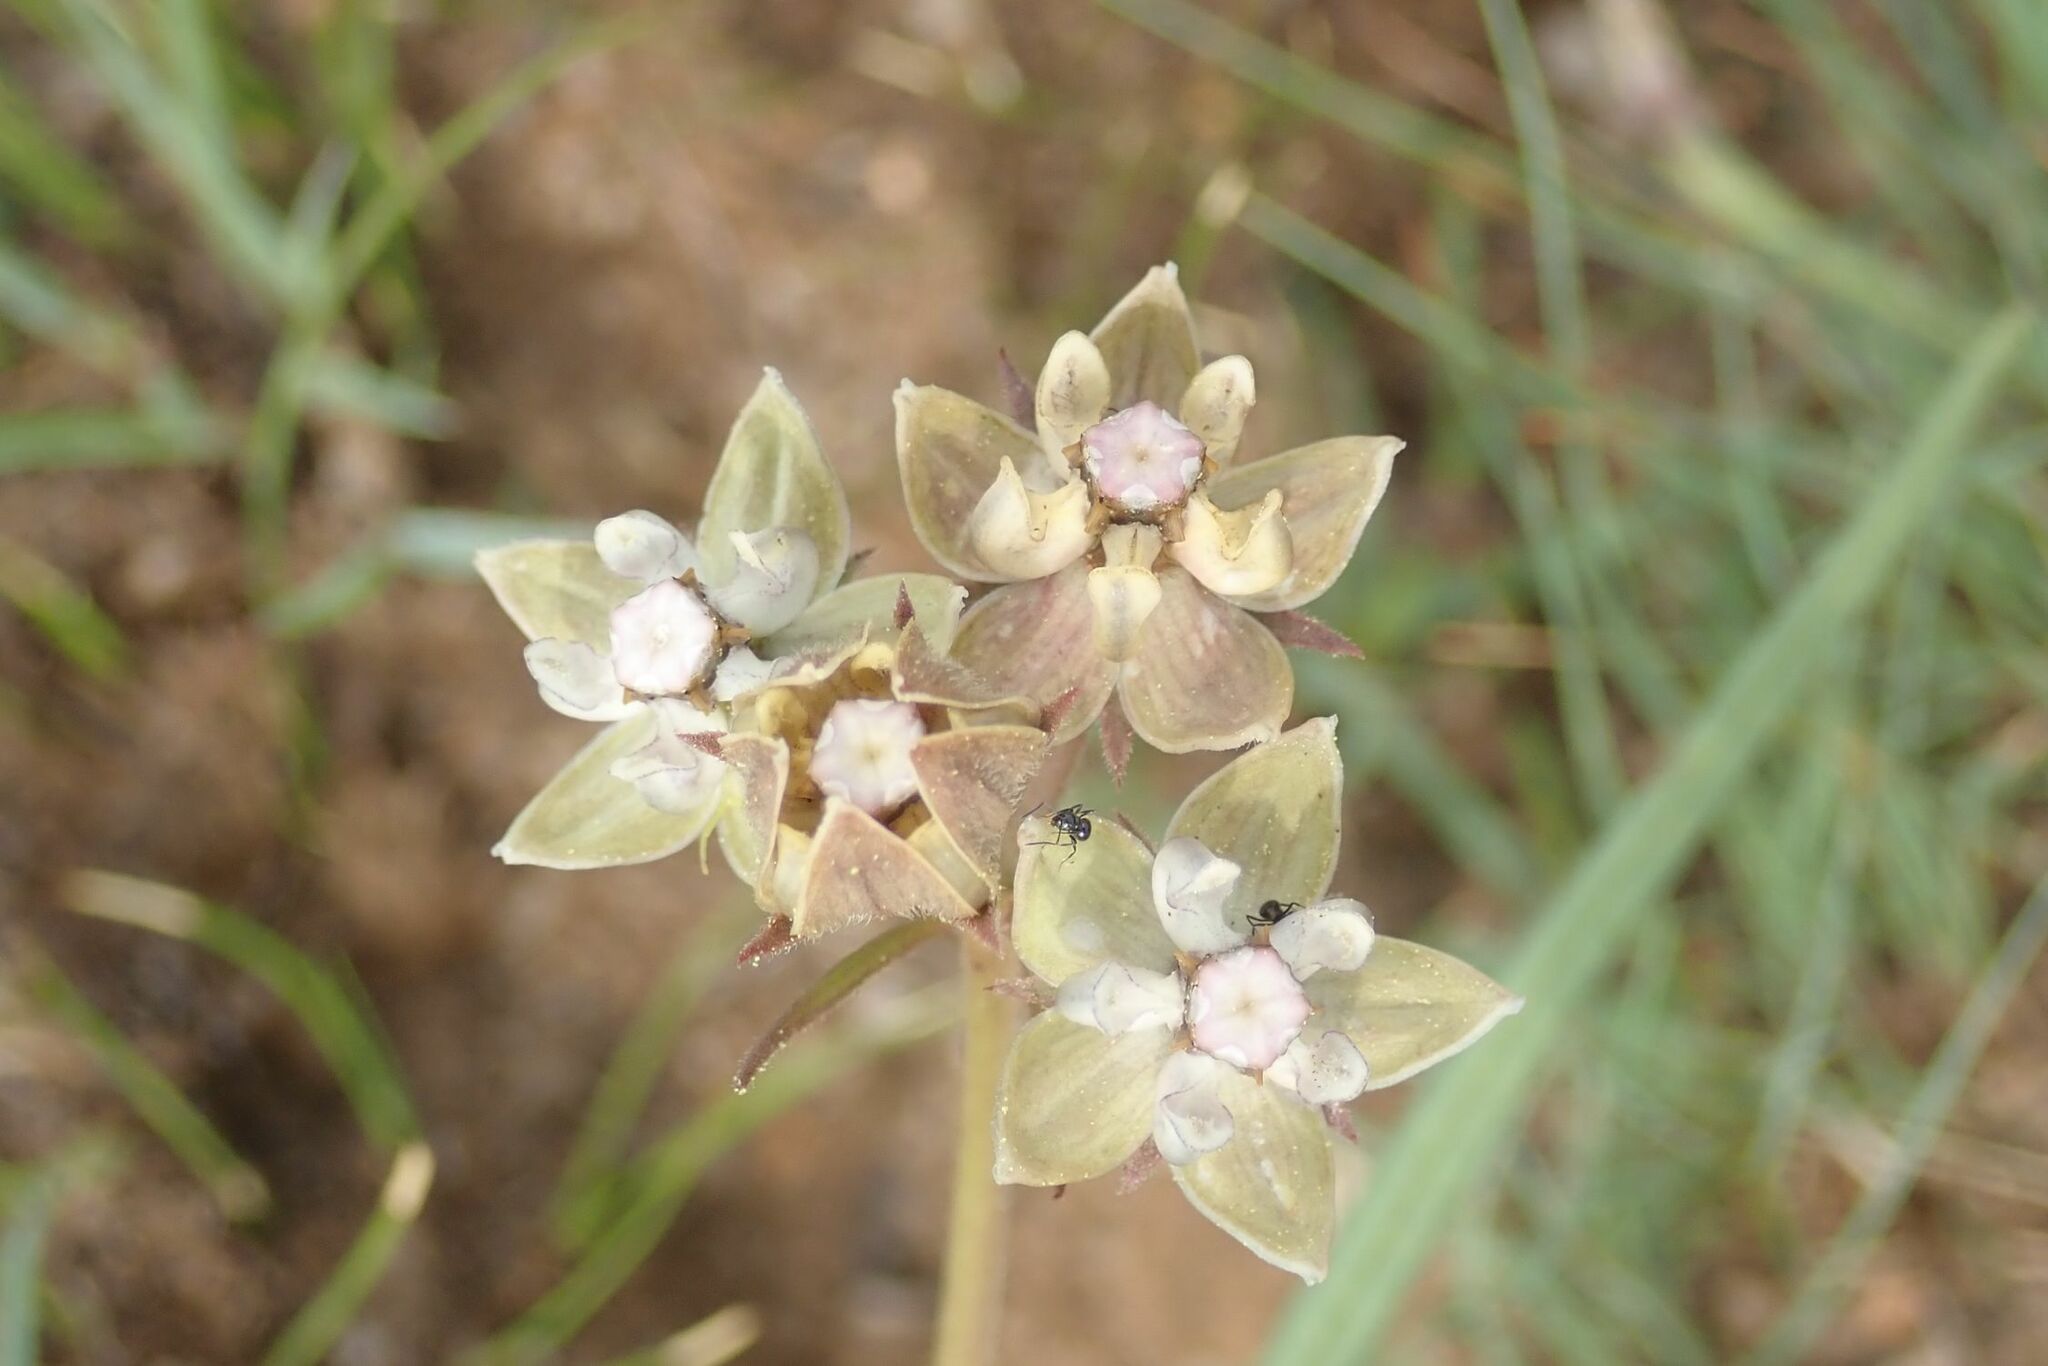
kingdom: Plantae
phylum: Tracheophyta
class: Magnoliopsida
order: Gentianales
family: Apocynaceae
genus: Asclepias
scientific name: Asclepias cucullata
